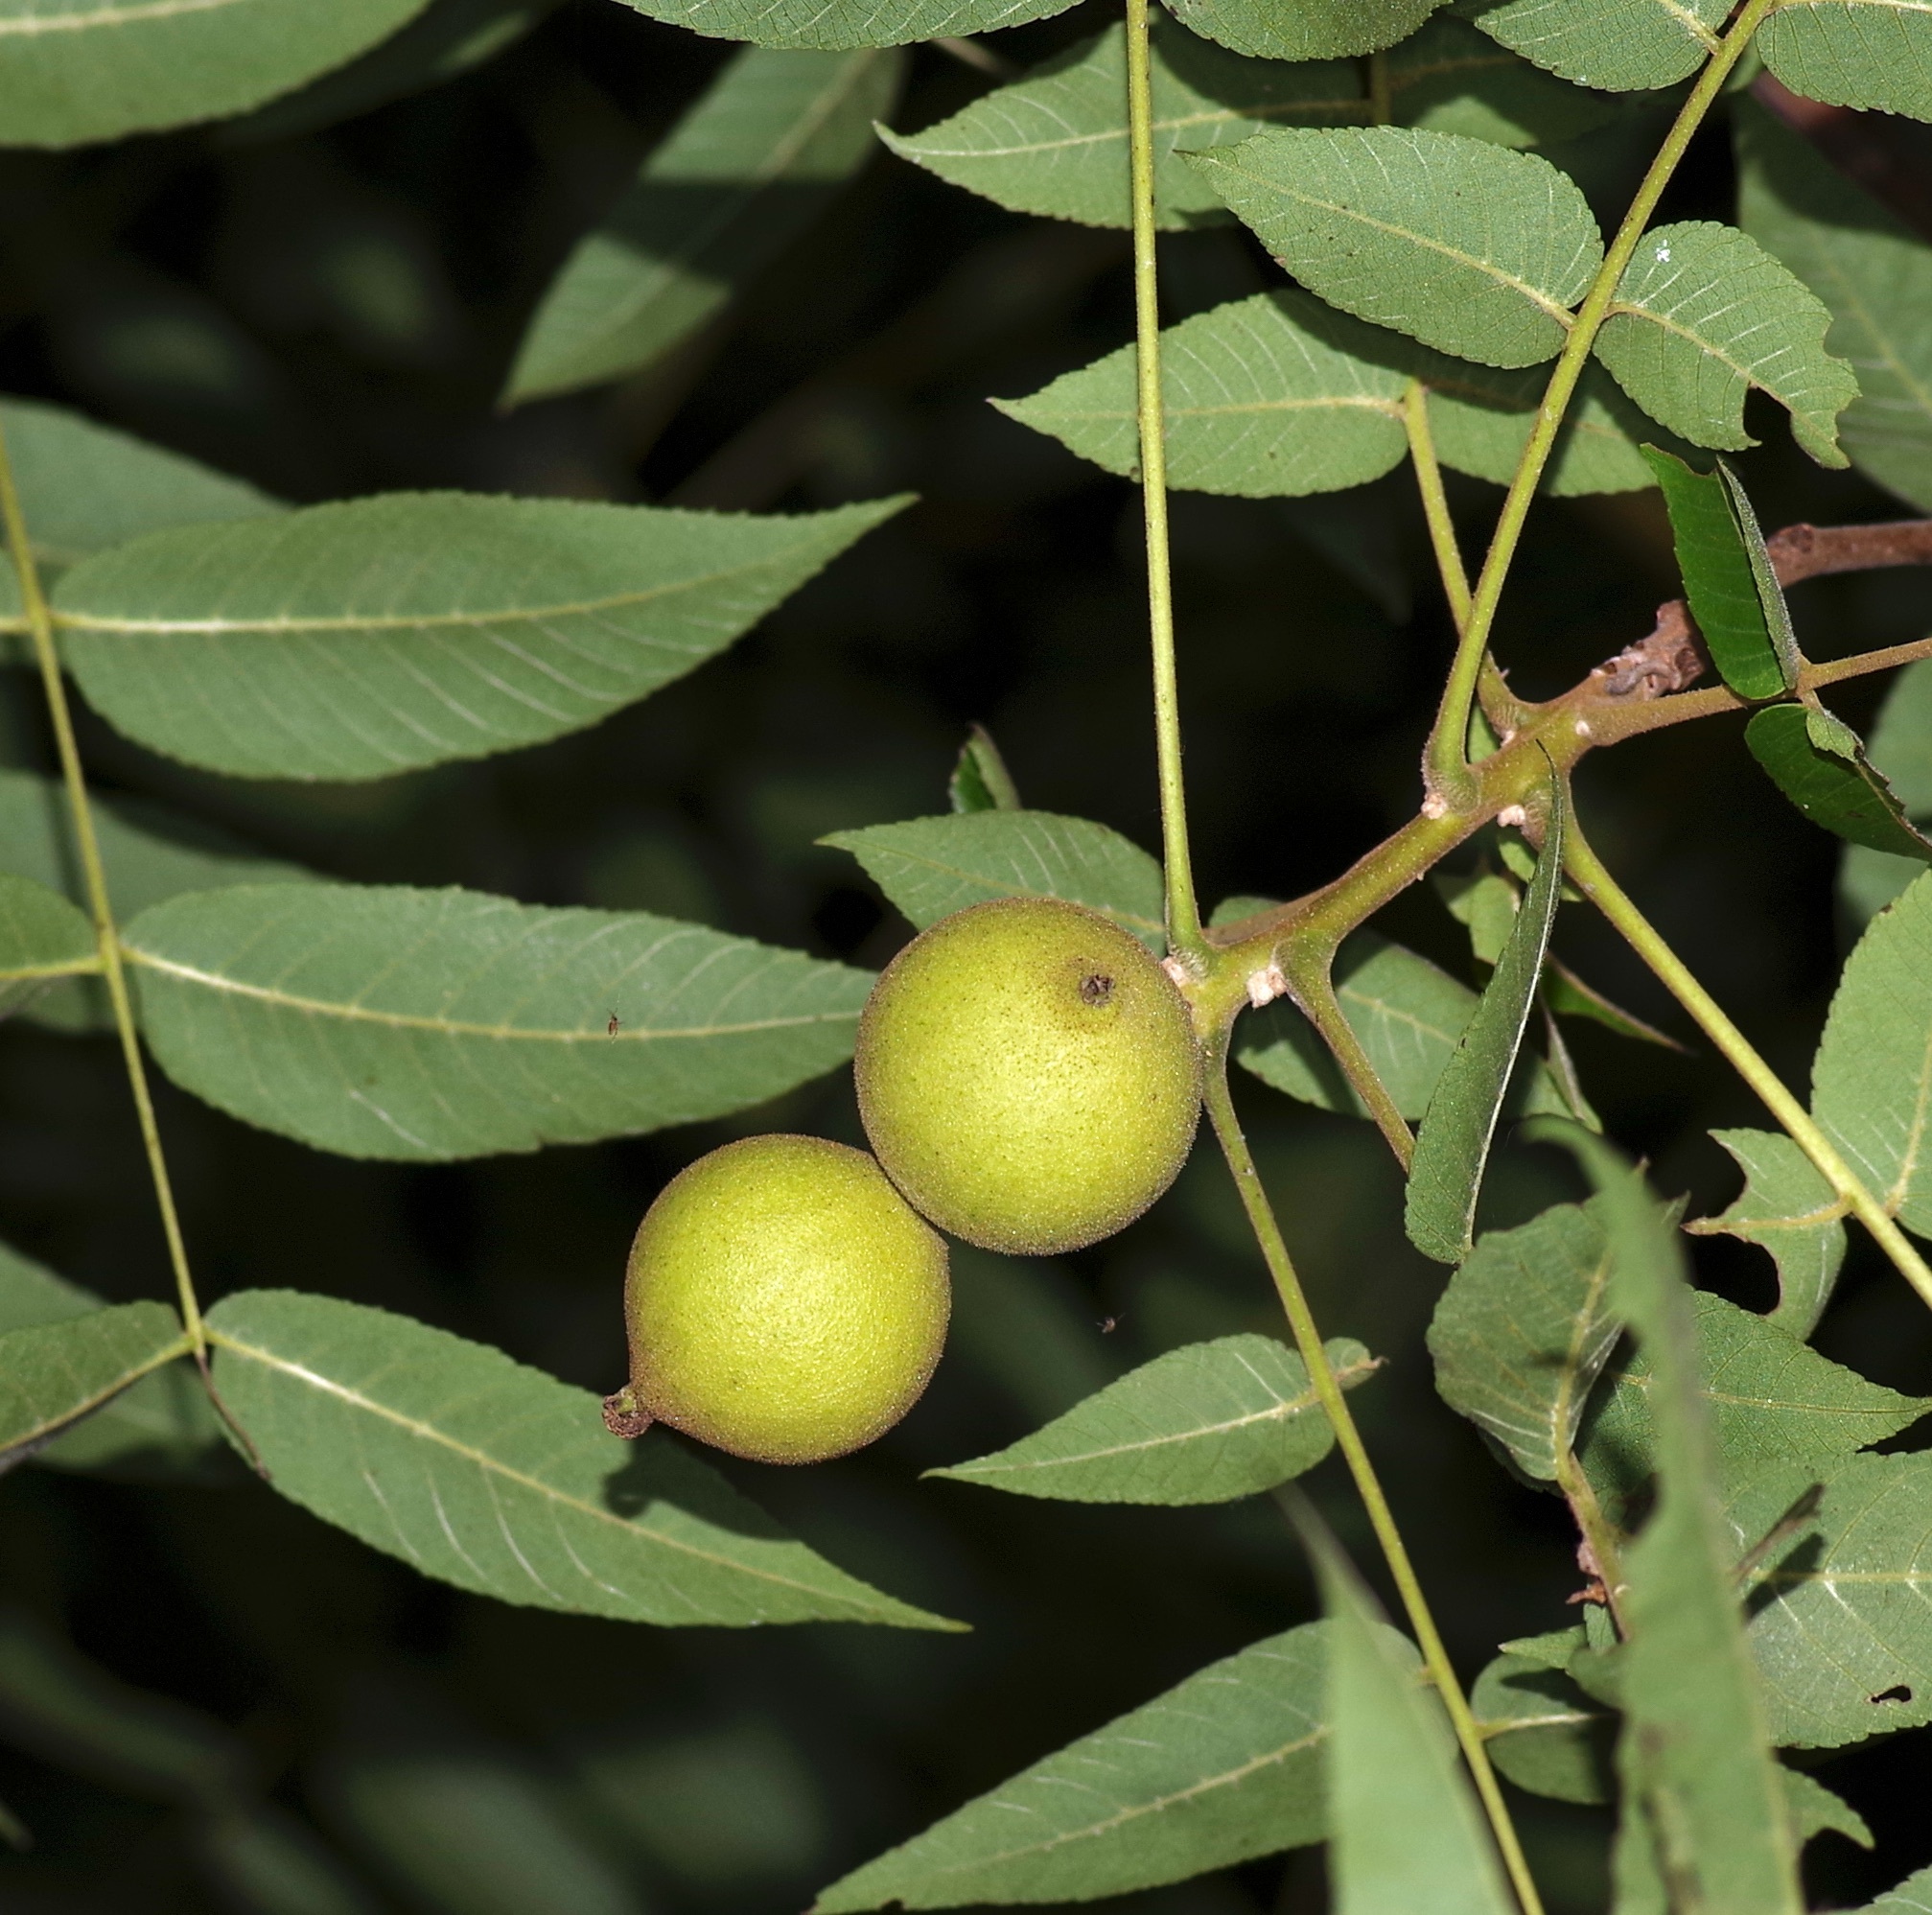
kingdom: Plantae
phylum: Tracheophyta
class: Magnoliopsida
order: Fagales
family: Juglandaceae
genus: Juglans
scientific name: Juglans major
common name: Arizona walnut
